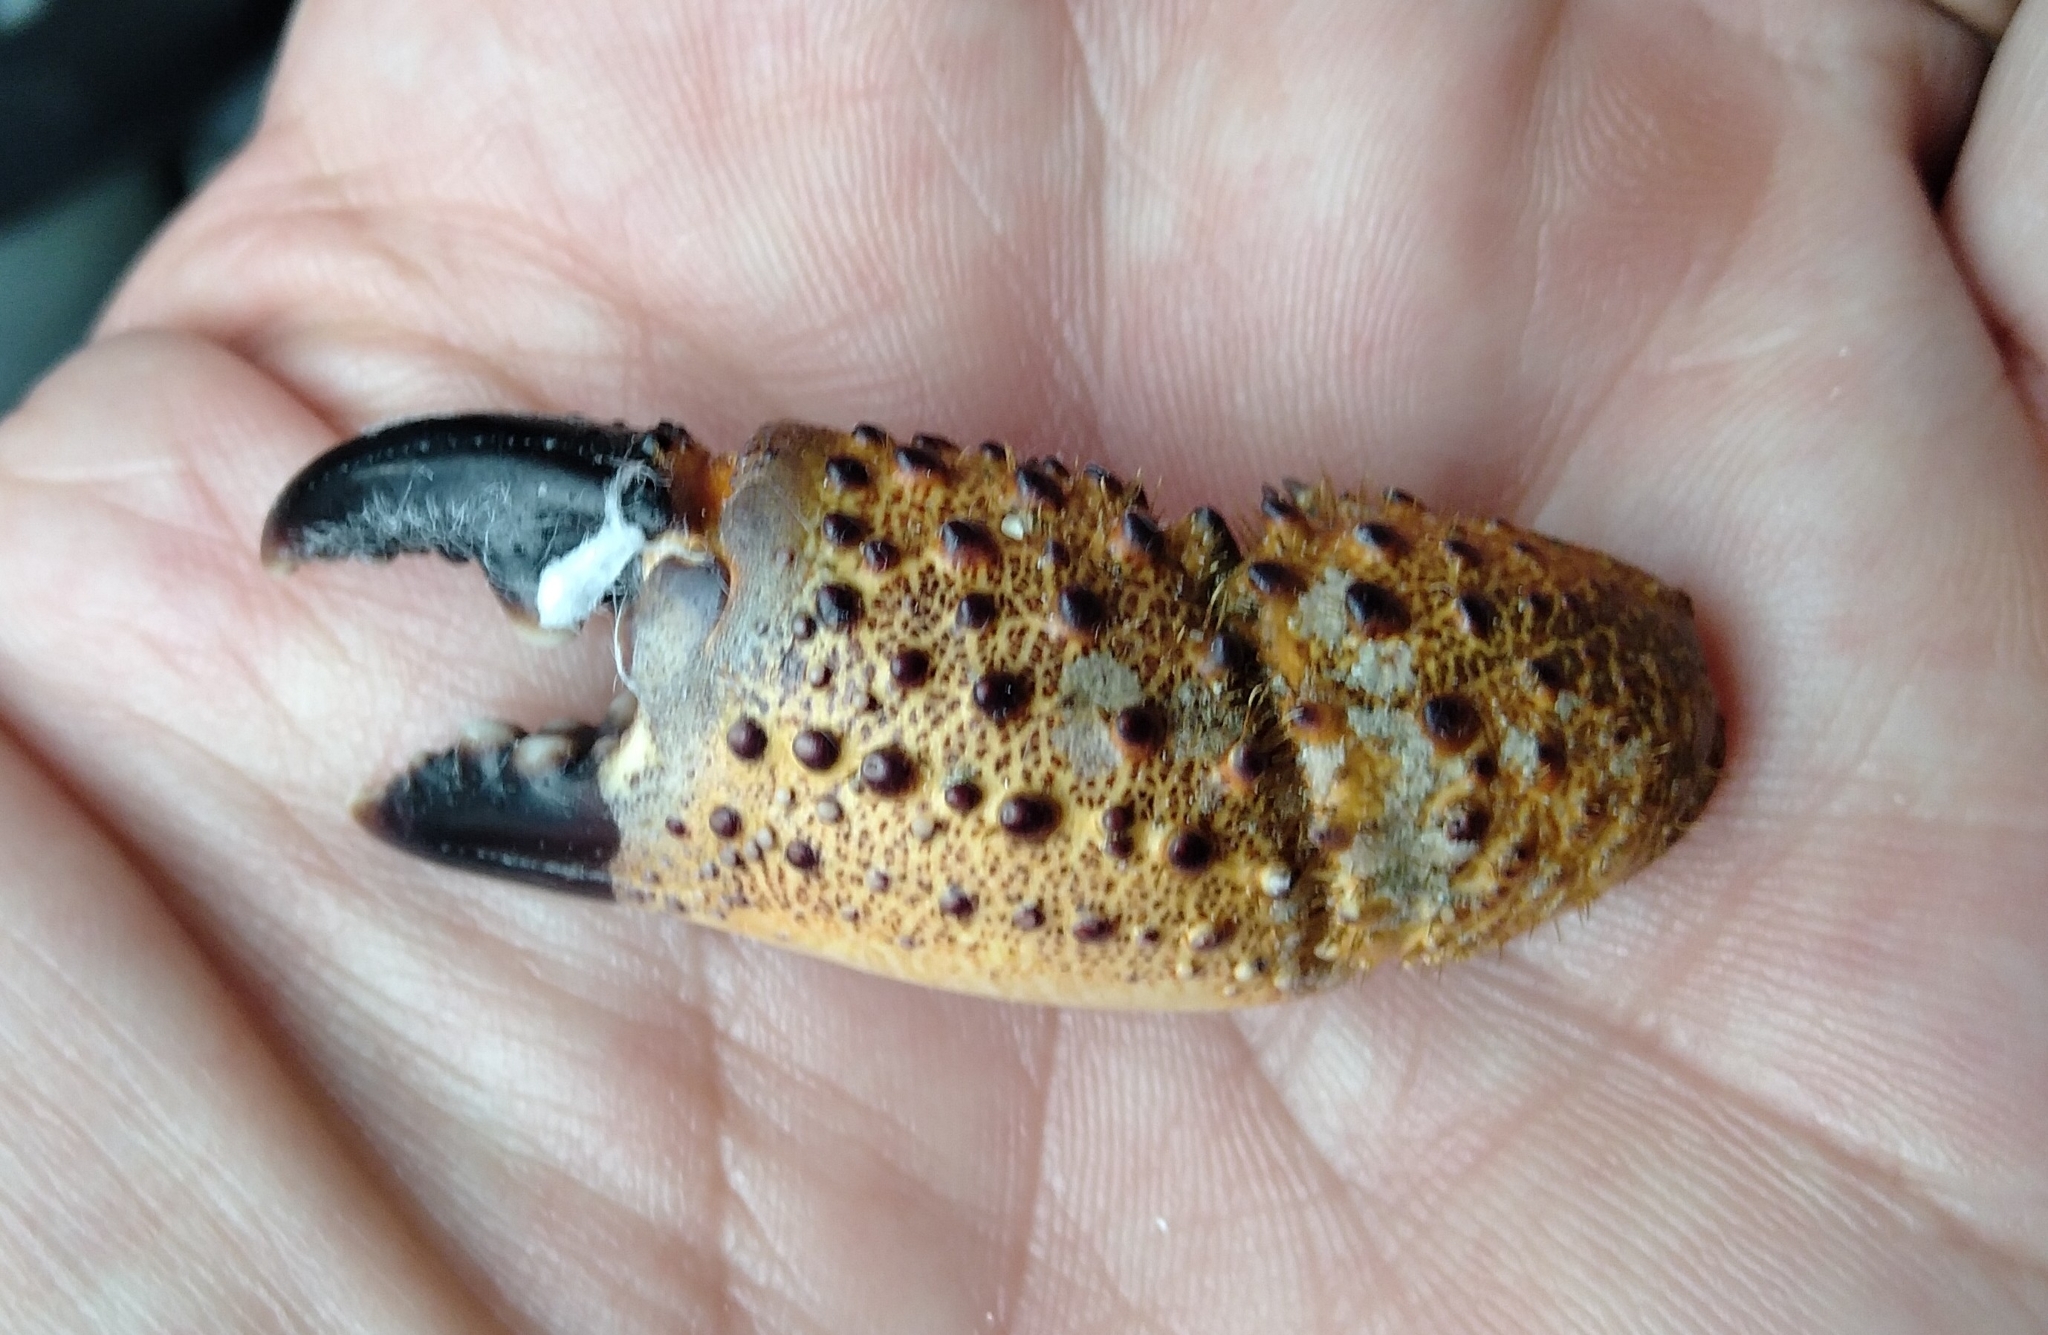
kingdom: Animalia
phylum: Arthropoda
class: Malacostraca
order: Decapoda
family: Eriphiidae
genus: Eriphia
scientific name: Eriphia verrucosa
